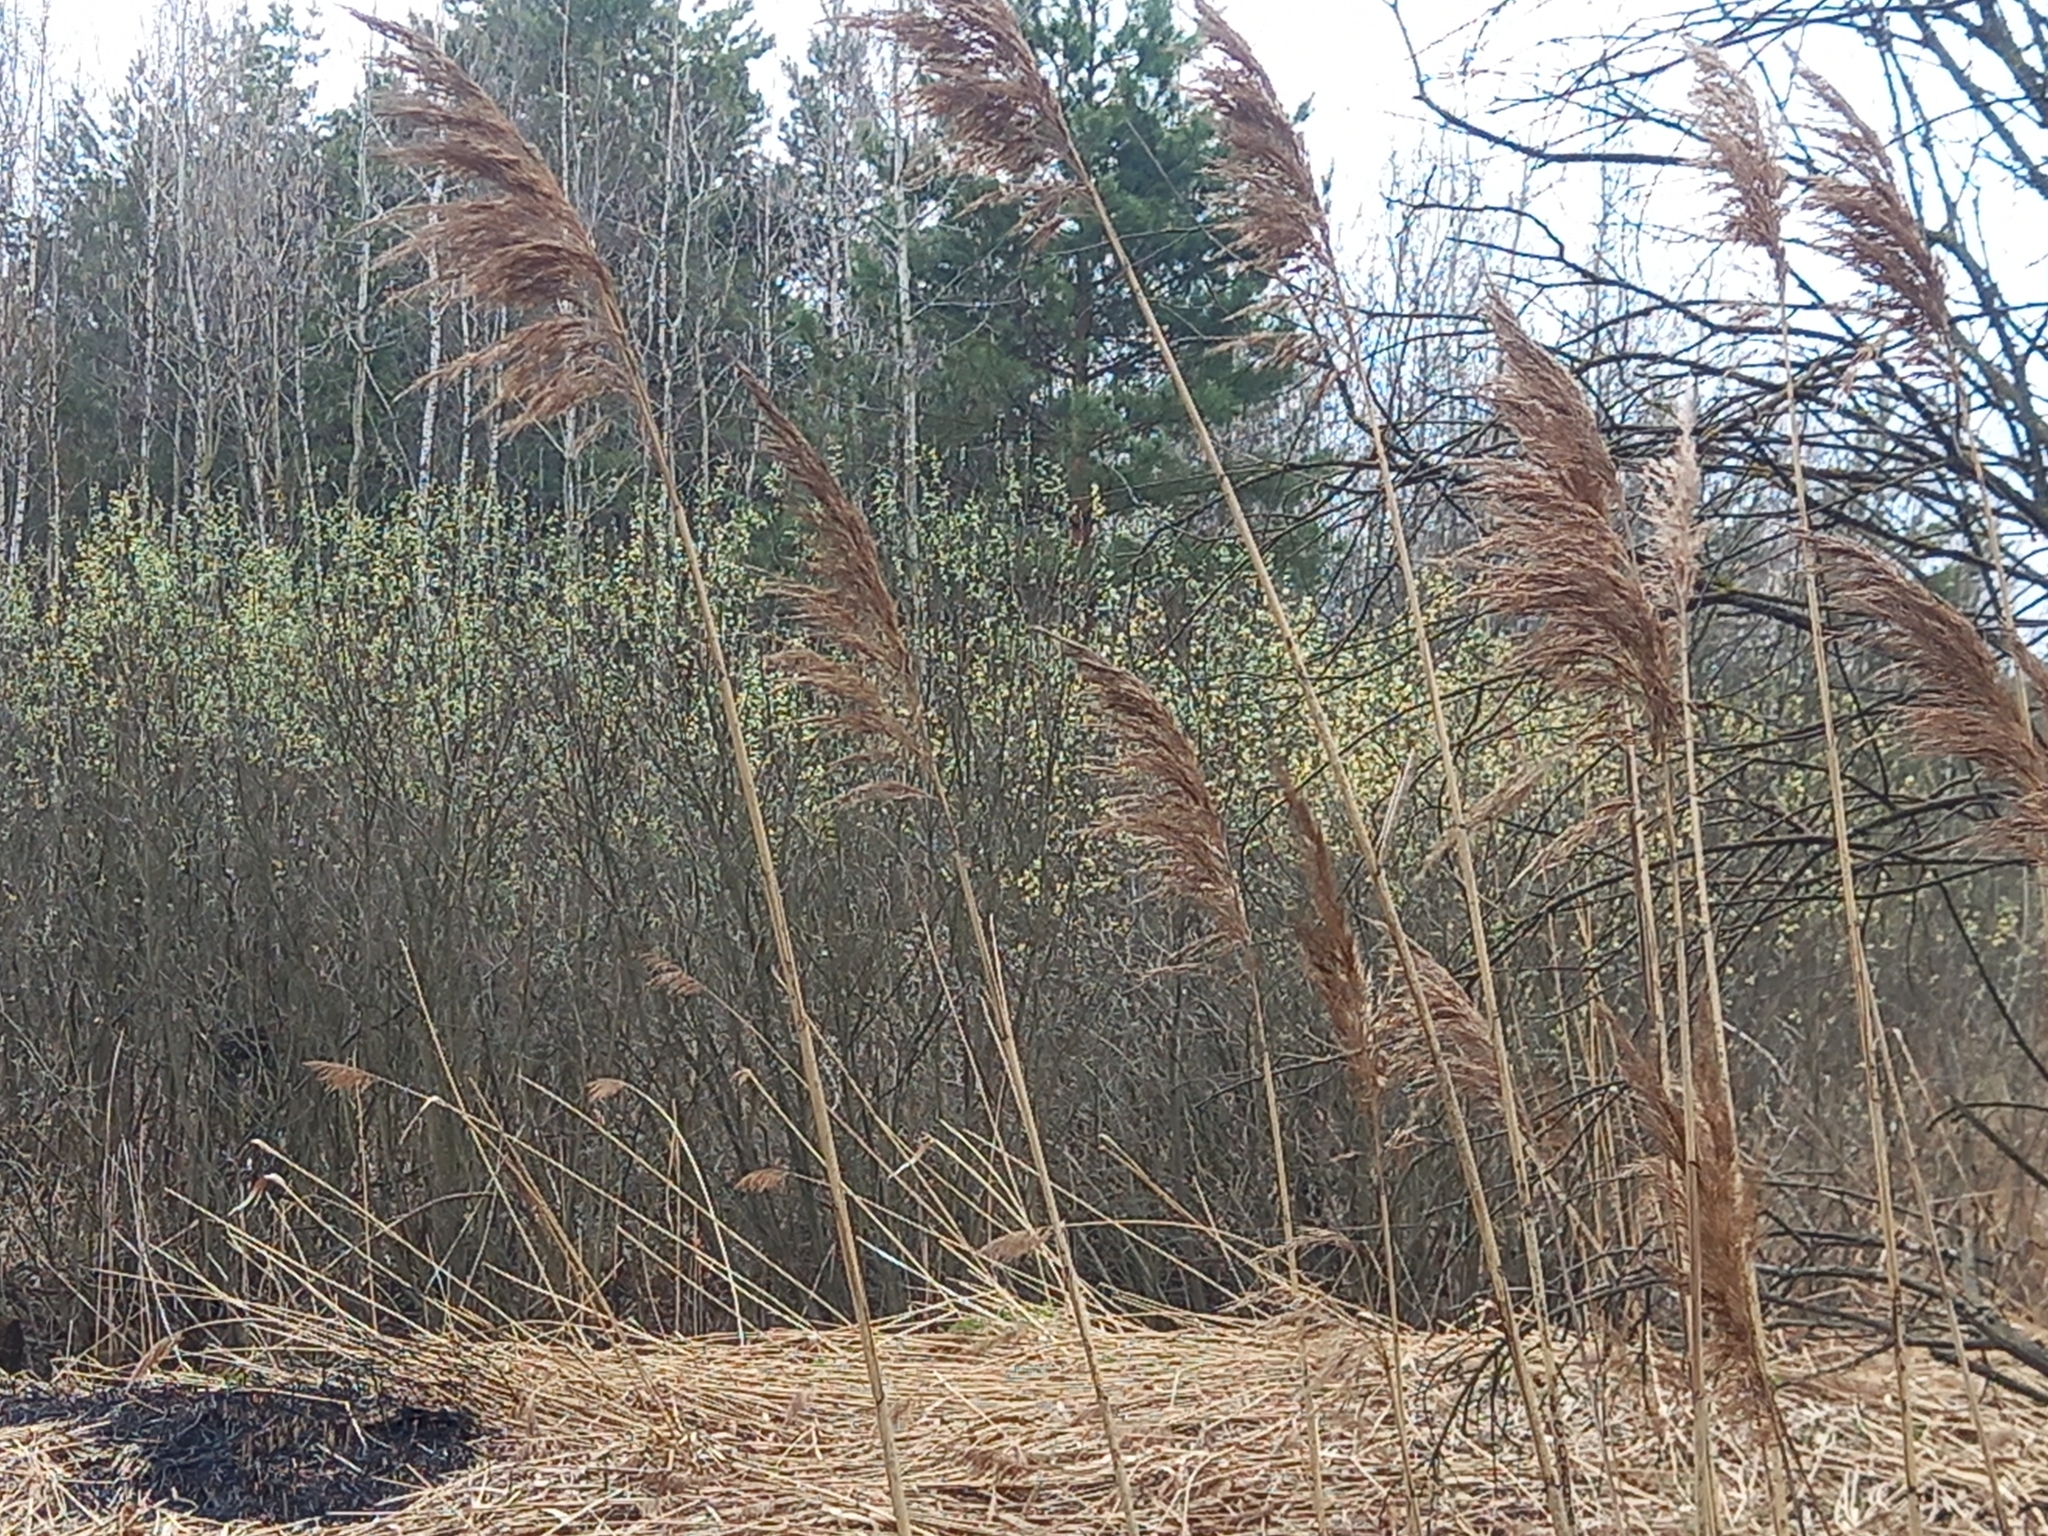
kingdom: Plantae
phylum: Tracheophyta
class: Liliopsida
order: Poales
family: Poaceae
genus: Phragmites
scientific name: Phragmites australis
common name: Common reed
